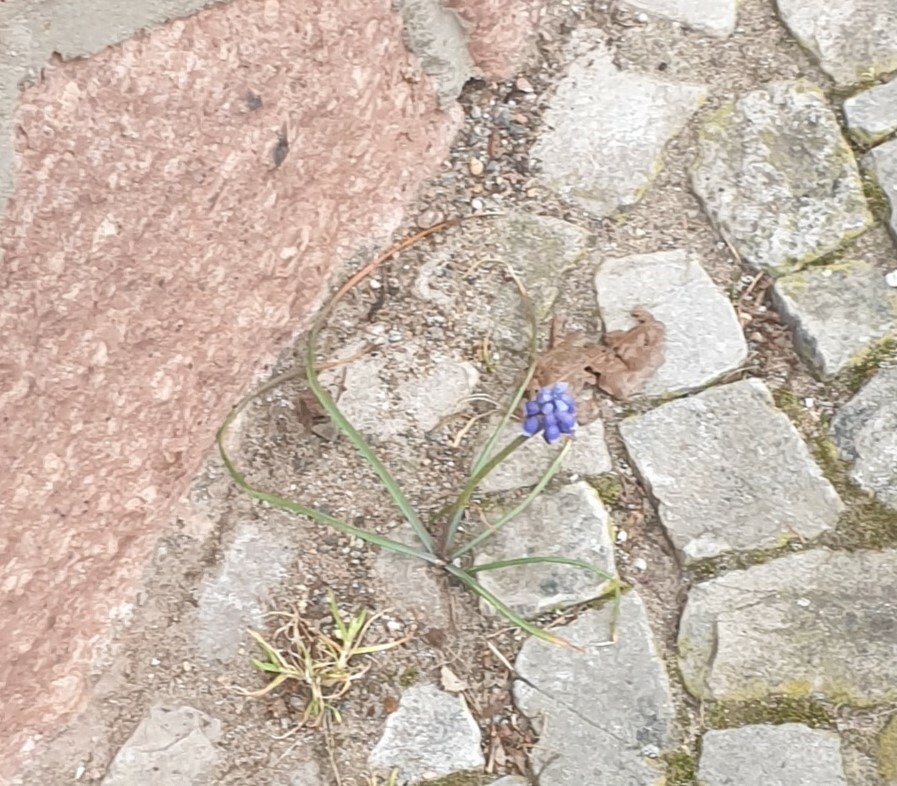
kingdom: Plantae
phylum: Tracheophyta
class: Liliopsida
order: Asparagales
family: Asparagaceae
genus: Muscari
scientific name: Muscari armeniacum
